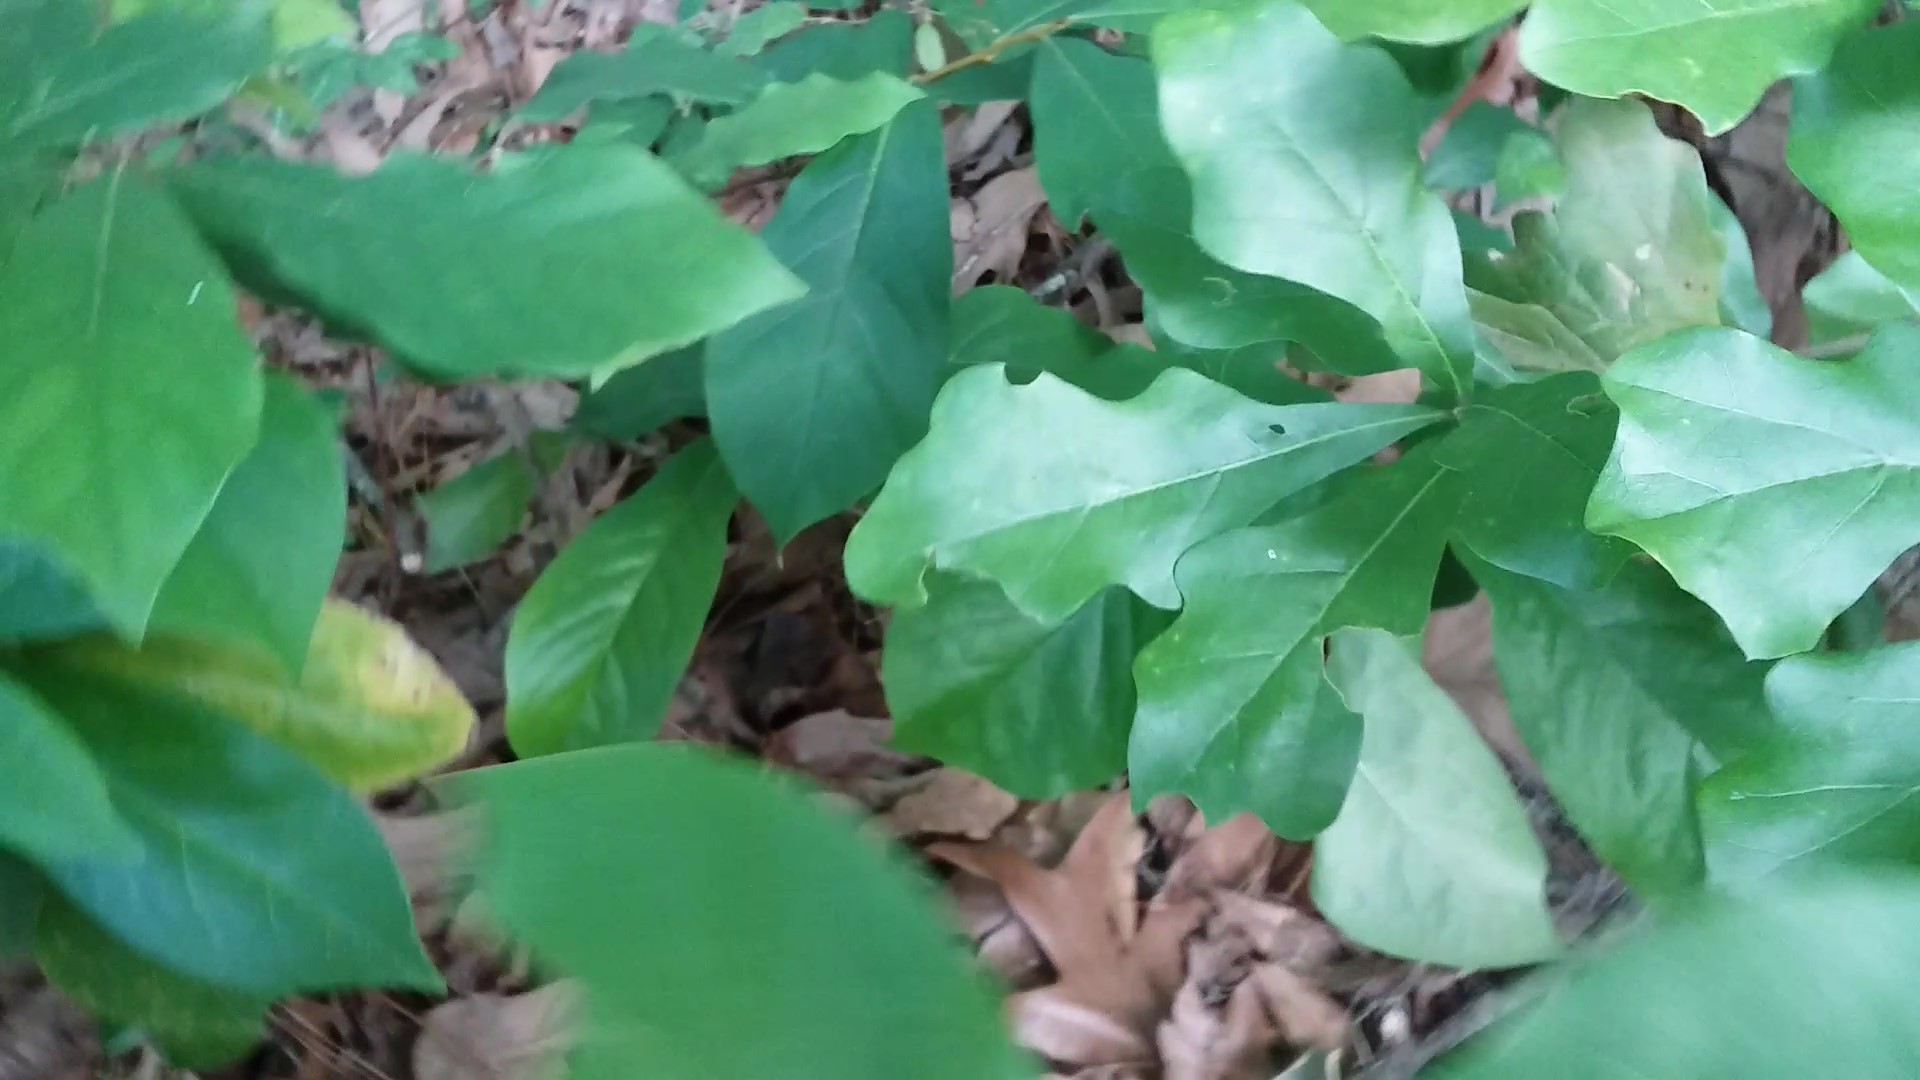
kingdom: Plantae
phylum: Tracheophyta
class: Magnoliopsida
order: Fagales
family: Fagaceae
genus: Quercus
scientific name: Quercus nigra
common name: Water oak
